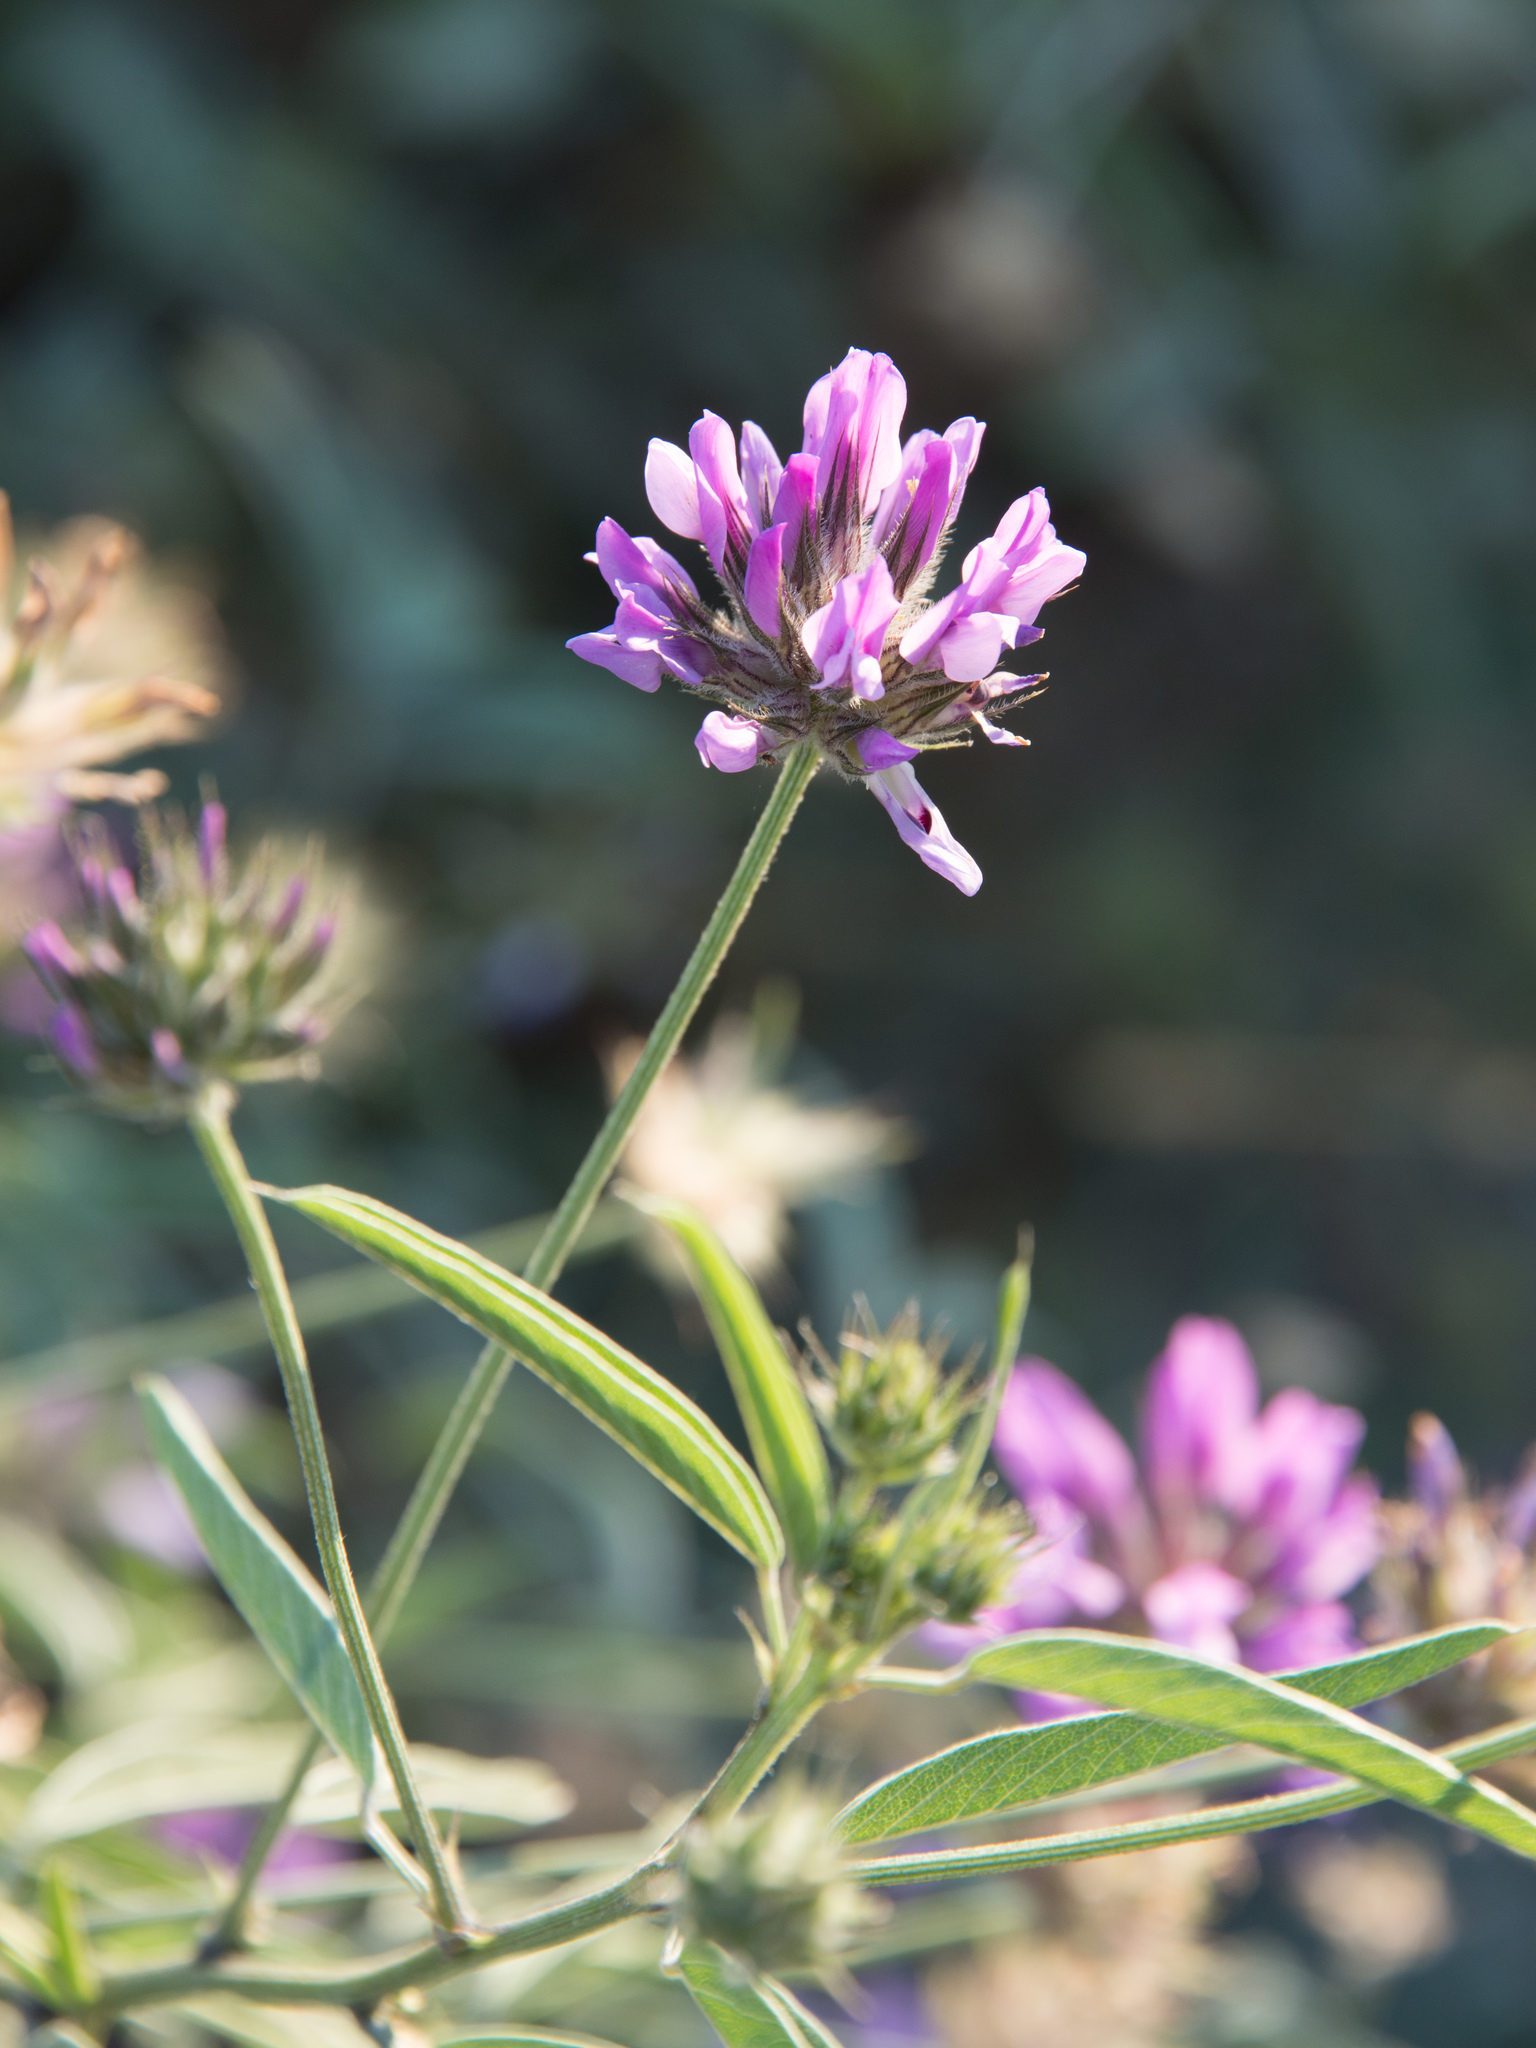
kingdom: Plantae
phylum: Tracheophyta
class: Magnoliopsida
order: Fabales
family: Fabaceae
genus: Bituminaria
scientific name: Bituminaria bituminosa
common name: Arabian pea
